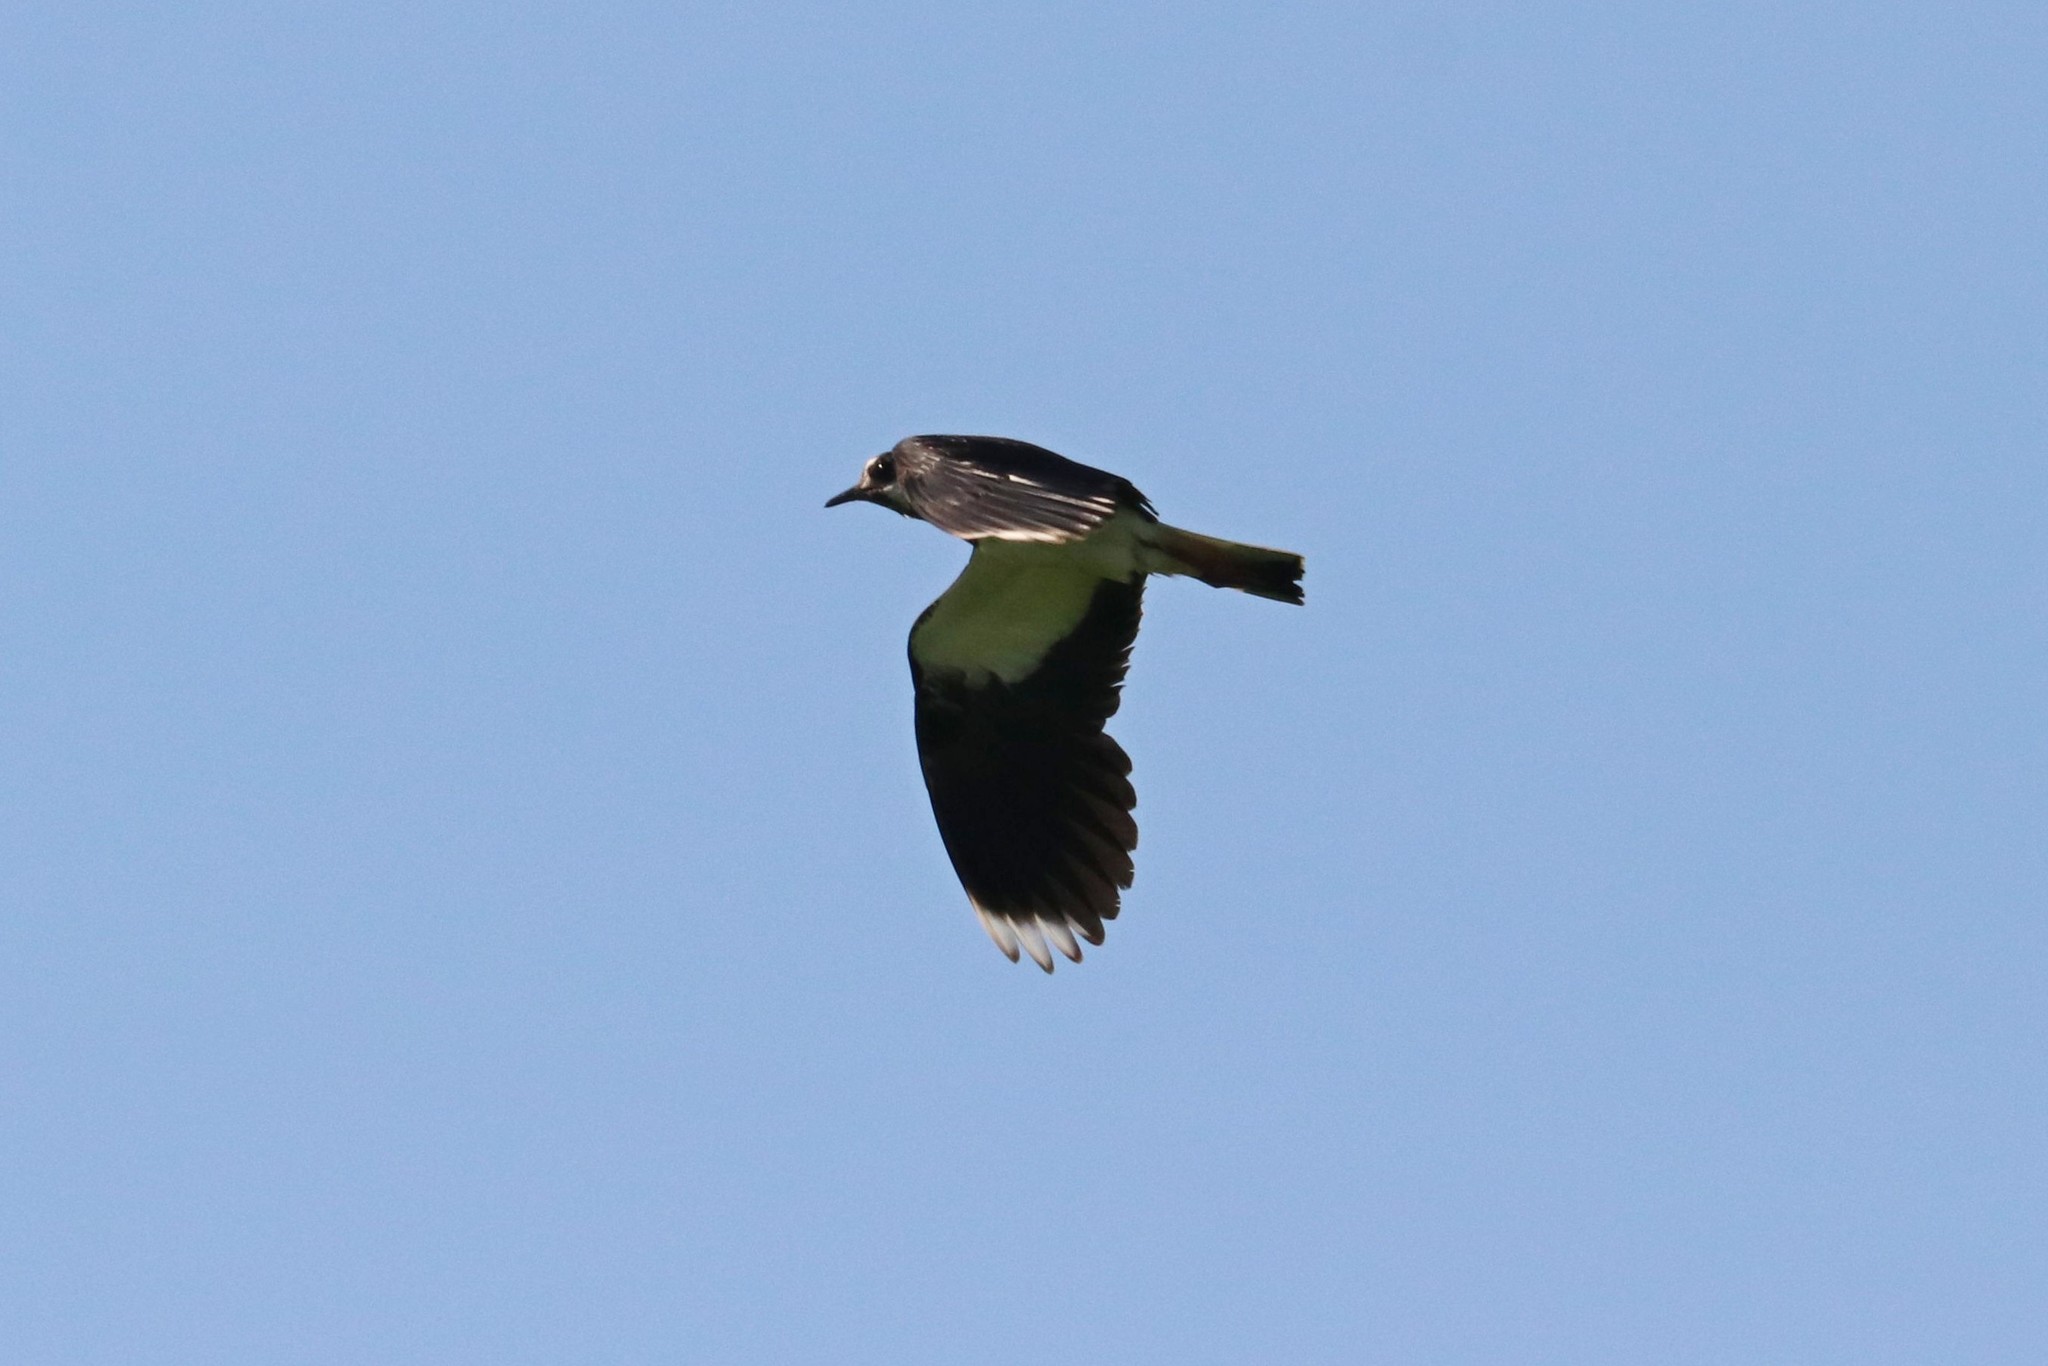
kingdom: Animalia
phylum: Chordata
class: Aves
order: Charadriiformes
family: Charadriidae
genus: Vanellus
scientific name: Vanellus vanellus
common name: Northern lapwing
